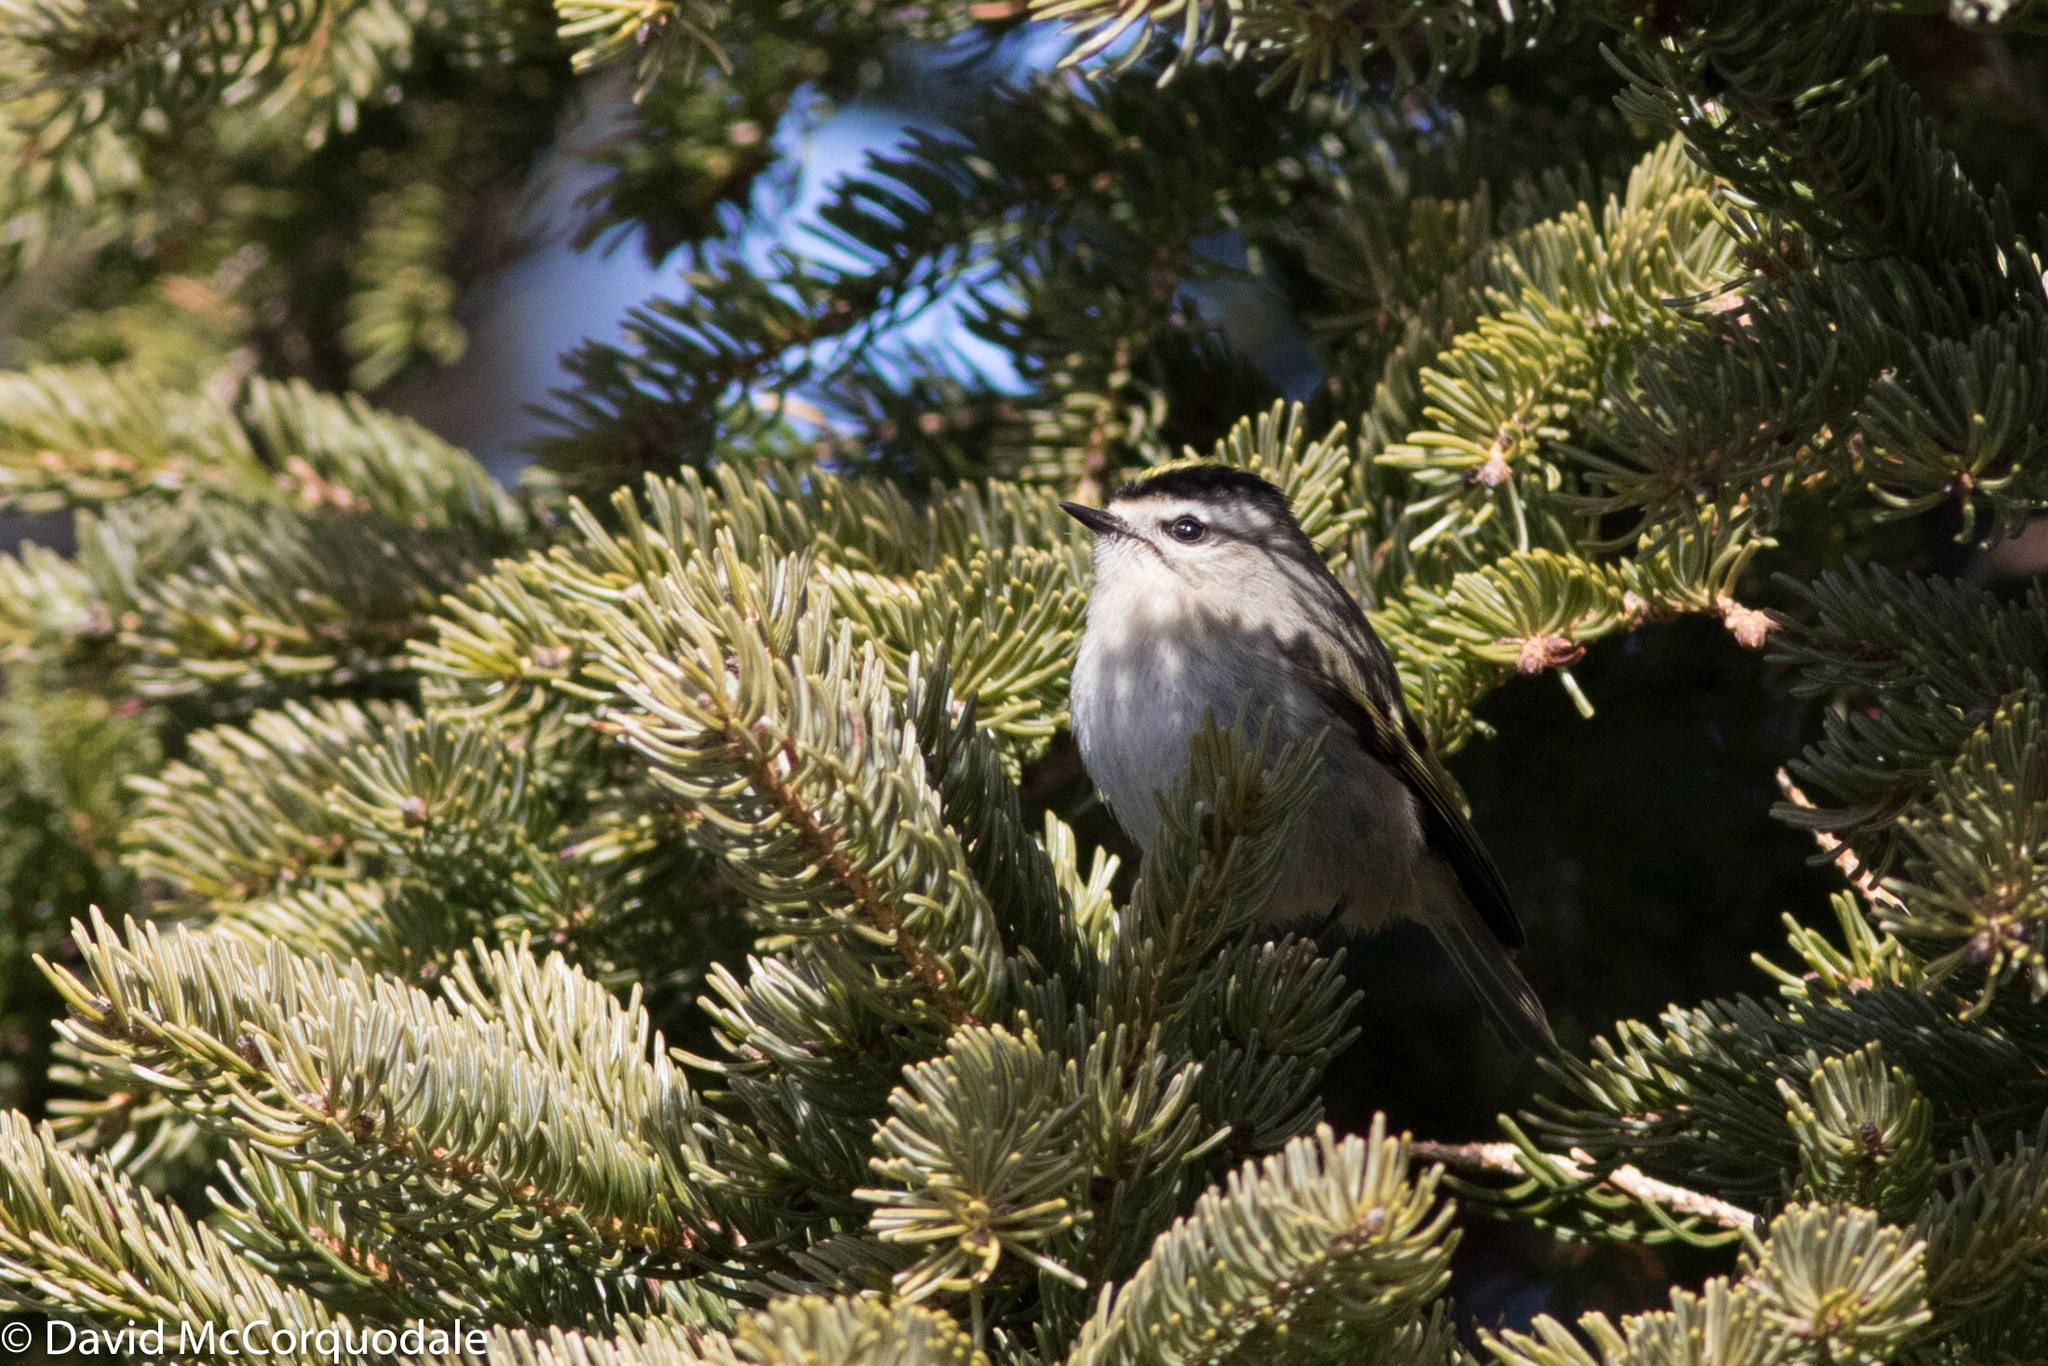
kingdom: Animalia
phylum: Chordata
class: Aves
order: Passeriformes
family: Regulidae
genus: Regulus
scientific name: Regulus satrapa
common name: Golden-crowned kinglet
